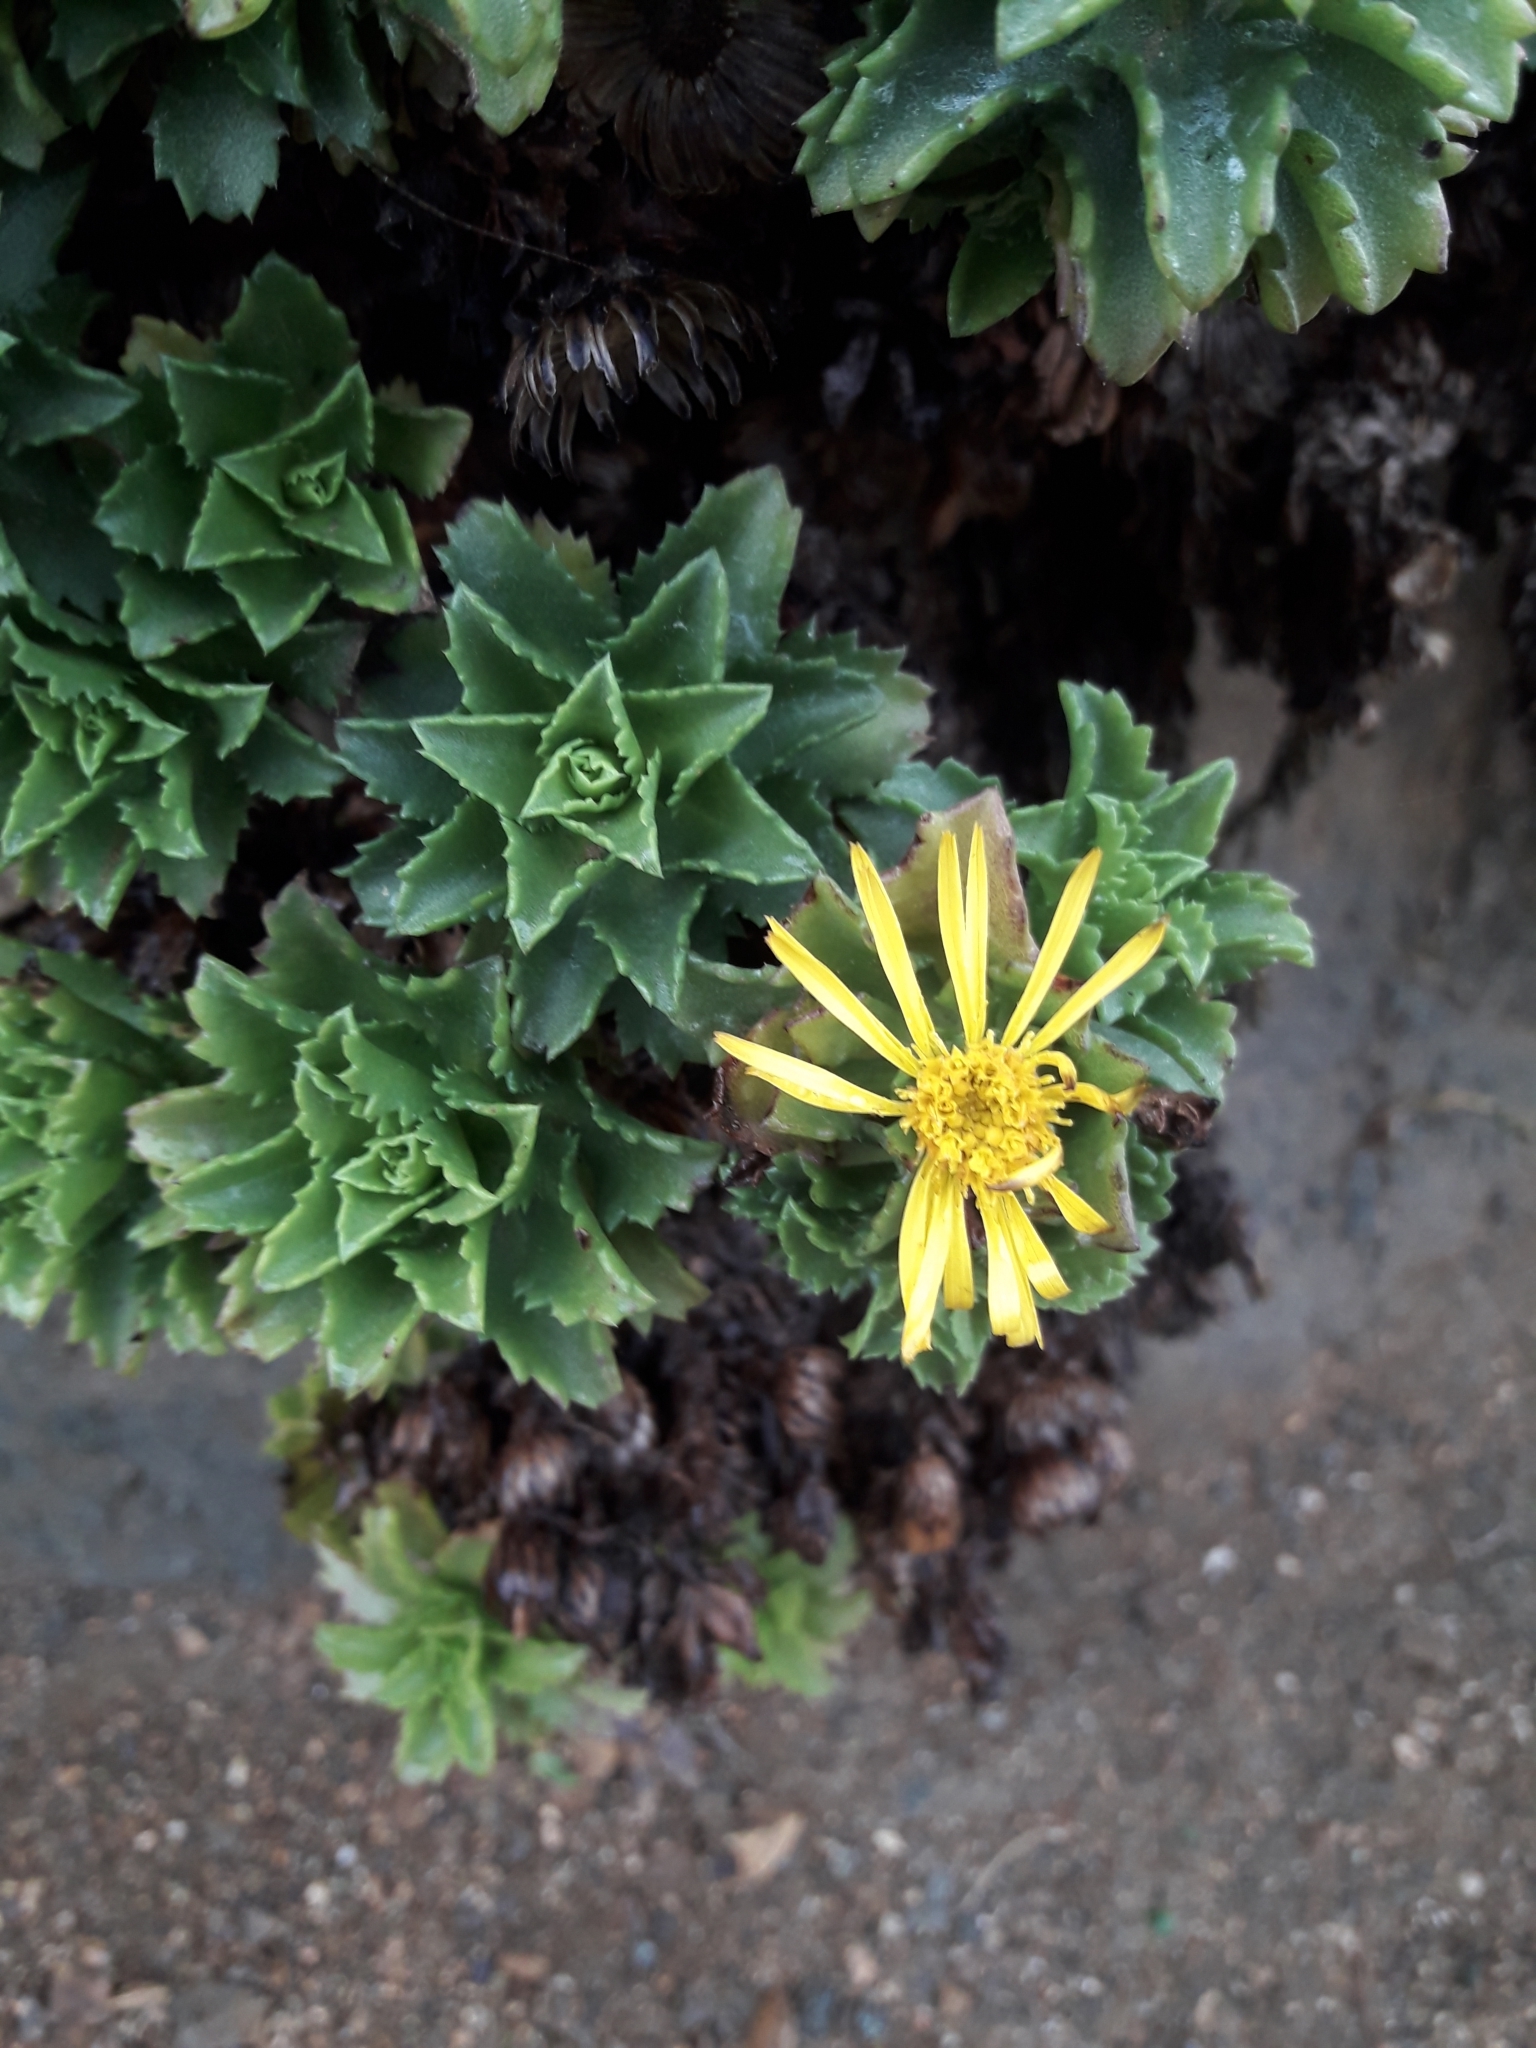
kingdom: Plantae
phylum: Tracheophyta
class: Magnoliopsida
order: Asterales
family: Asteraceae
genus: Haplopappus
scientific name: Haplopappus foliosus
